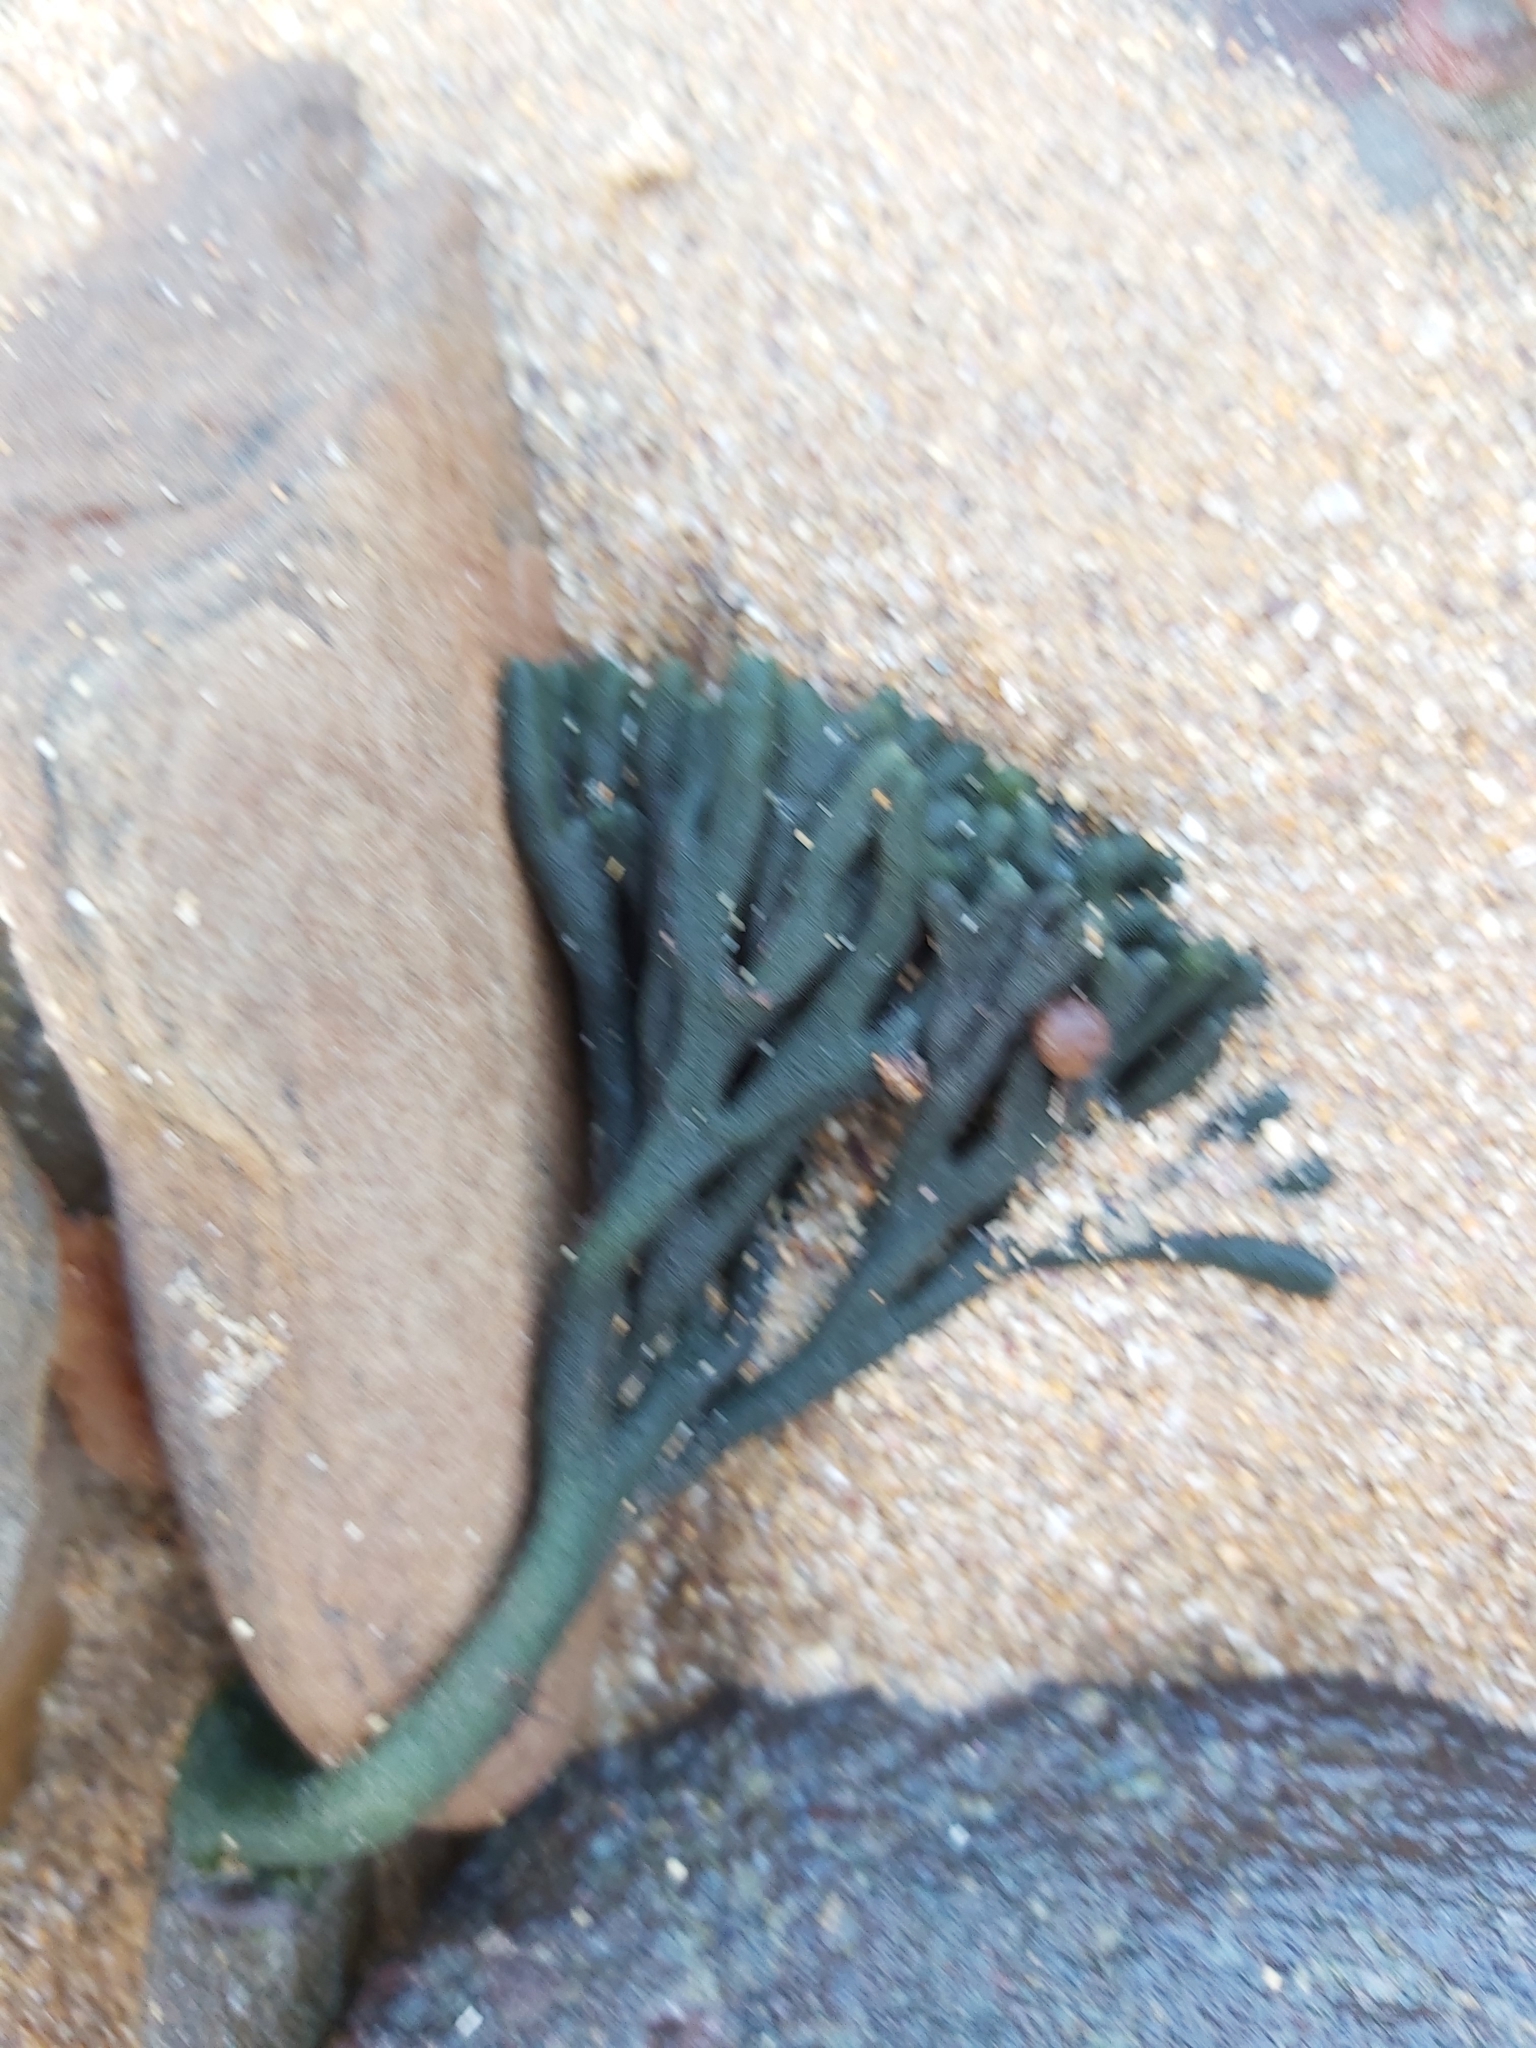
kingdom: Plantae
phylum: Chlorophyta
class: Ulvophyceae
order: Bryopsidales
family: Codiaceae
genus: Codium
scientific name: Codium fragile
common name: Dead man's fingers
